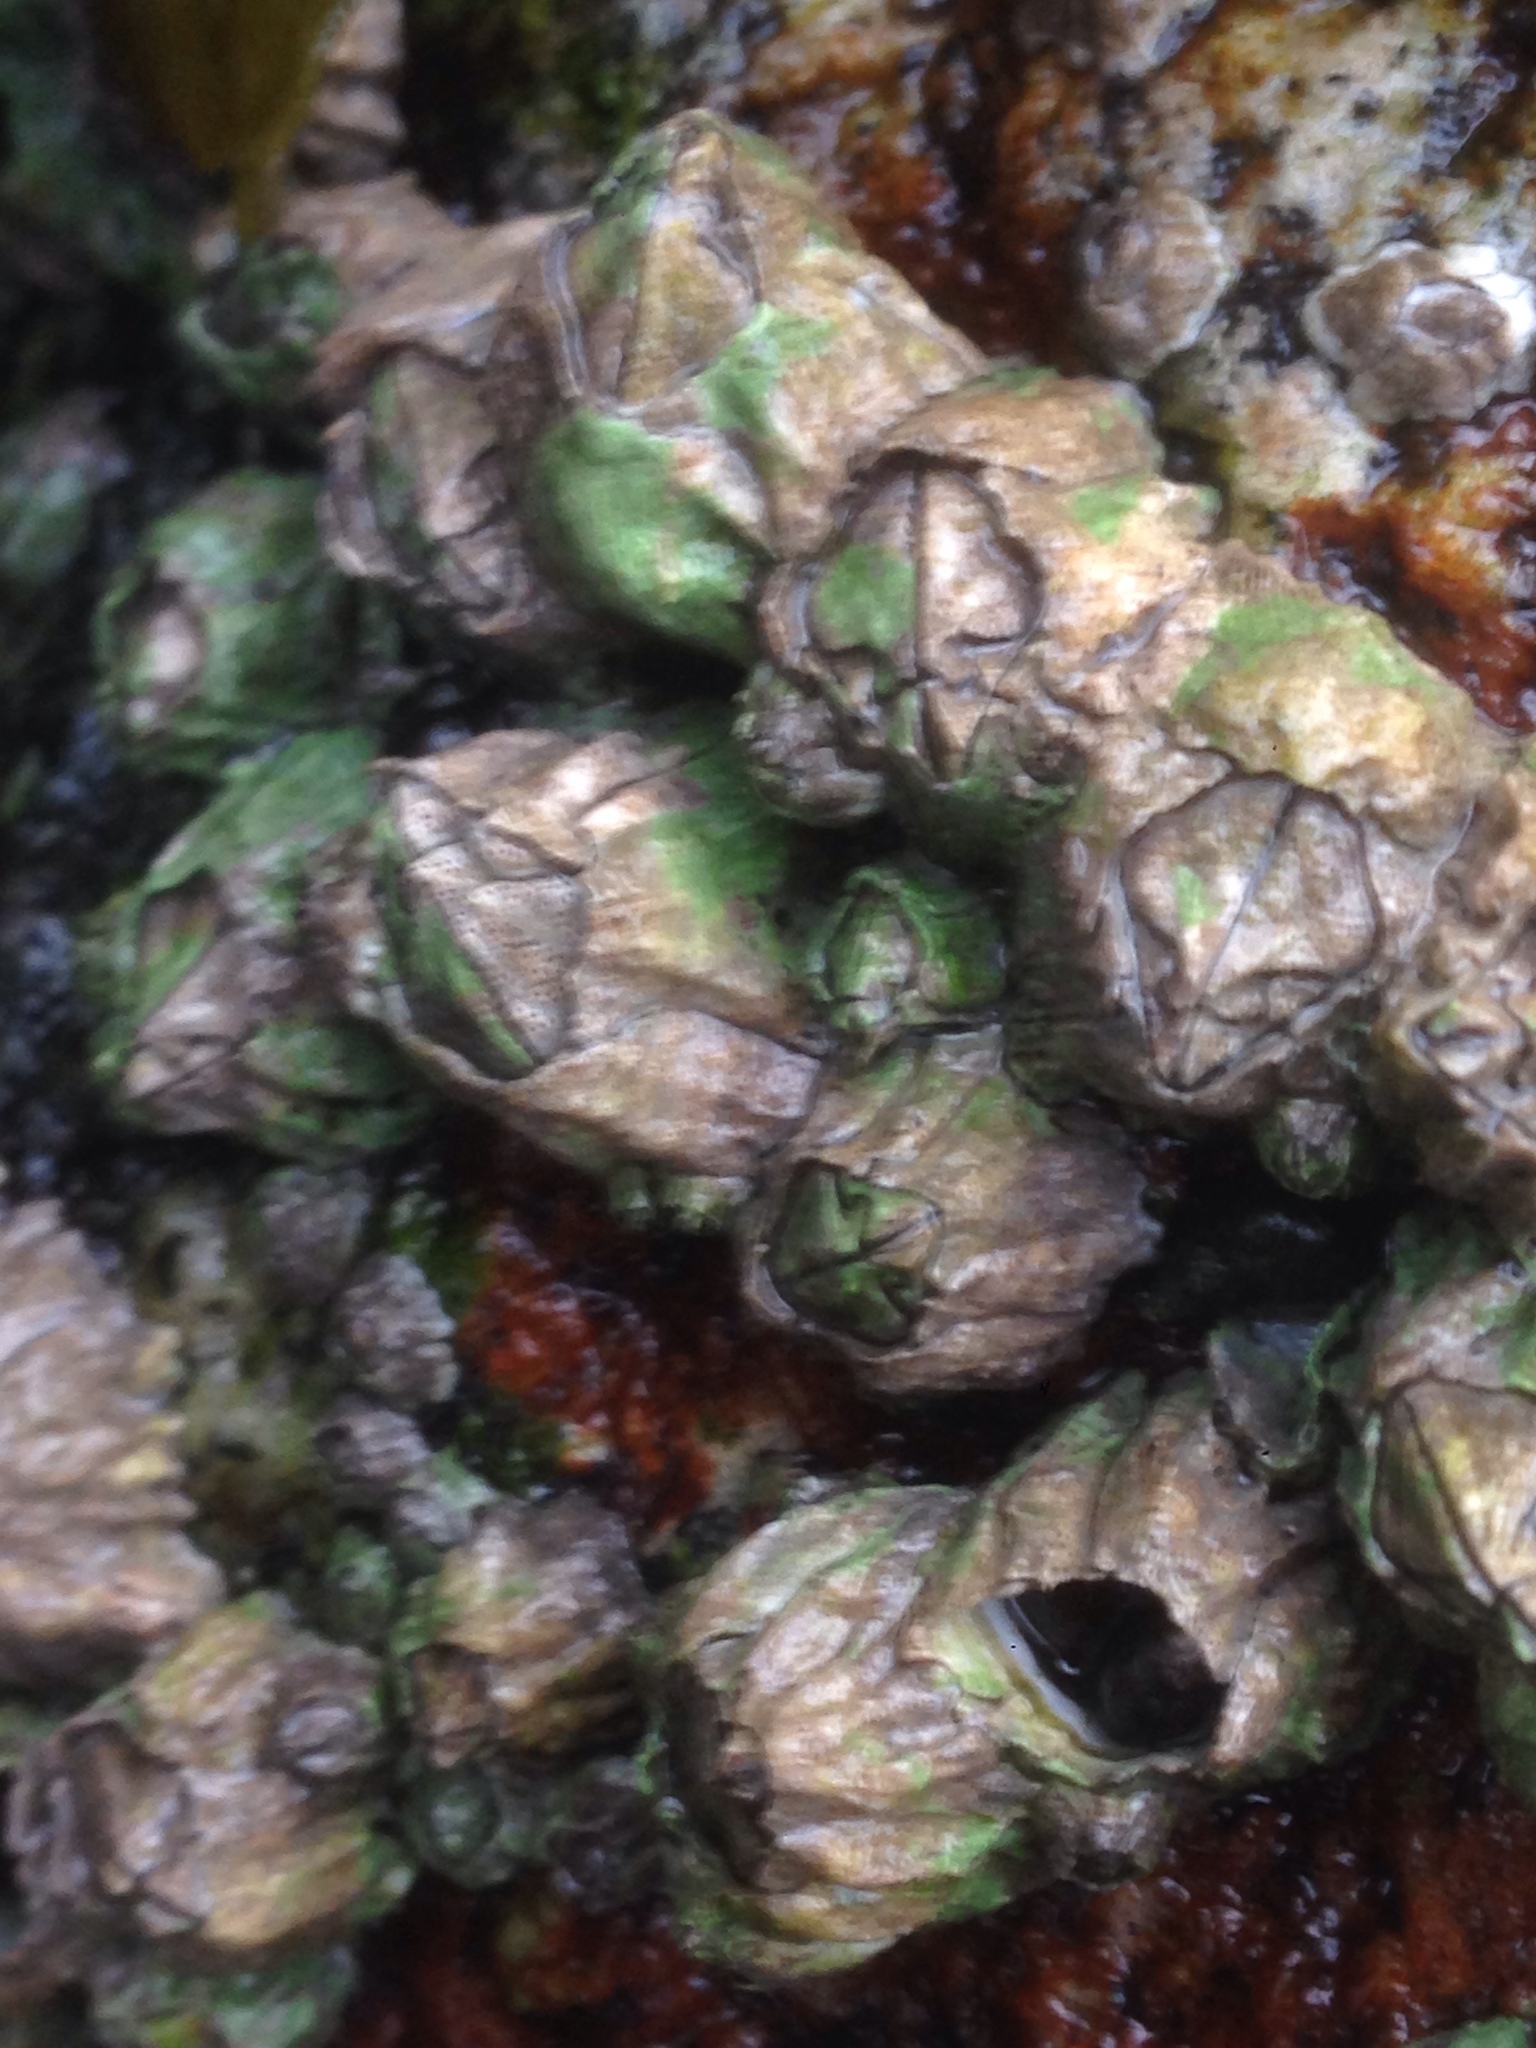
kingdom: Animalia
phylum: Arthropoda
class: Maxillopoda
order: Sessilia
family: Balanidae
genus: Balanus
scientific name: Balanus glandula
